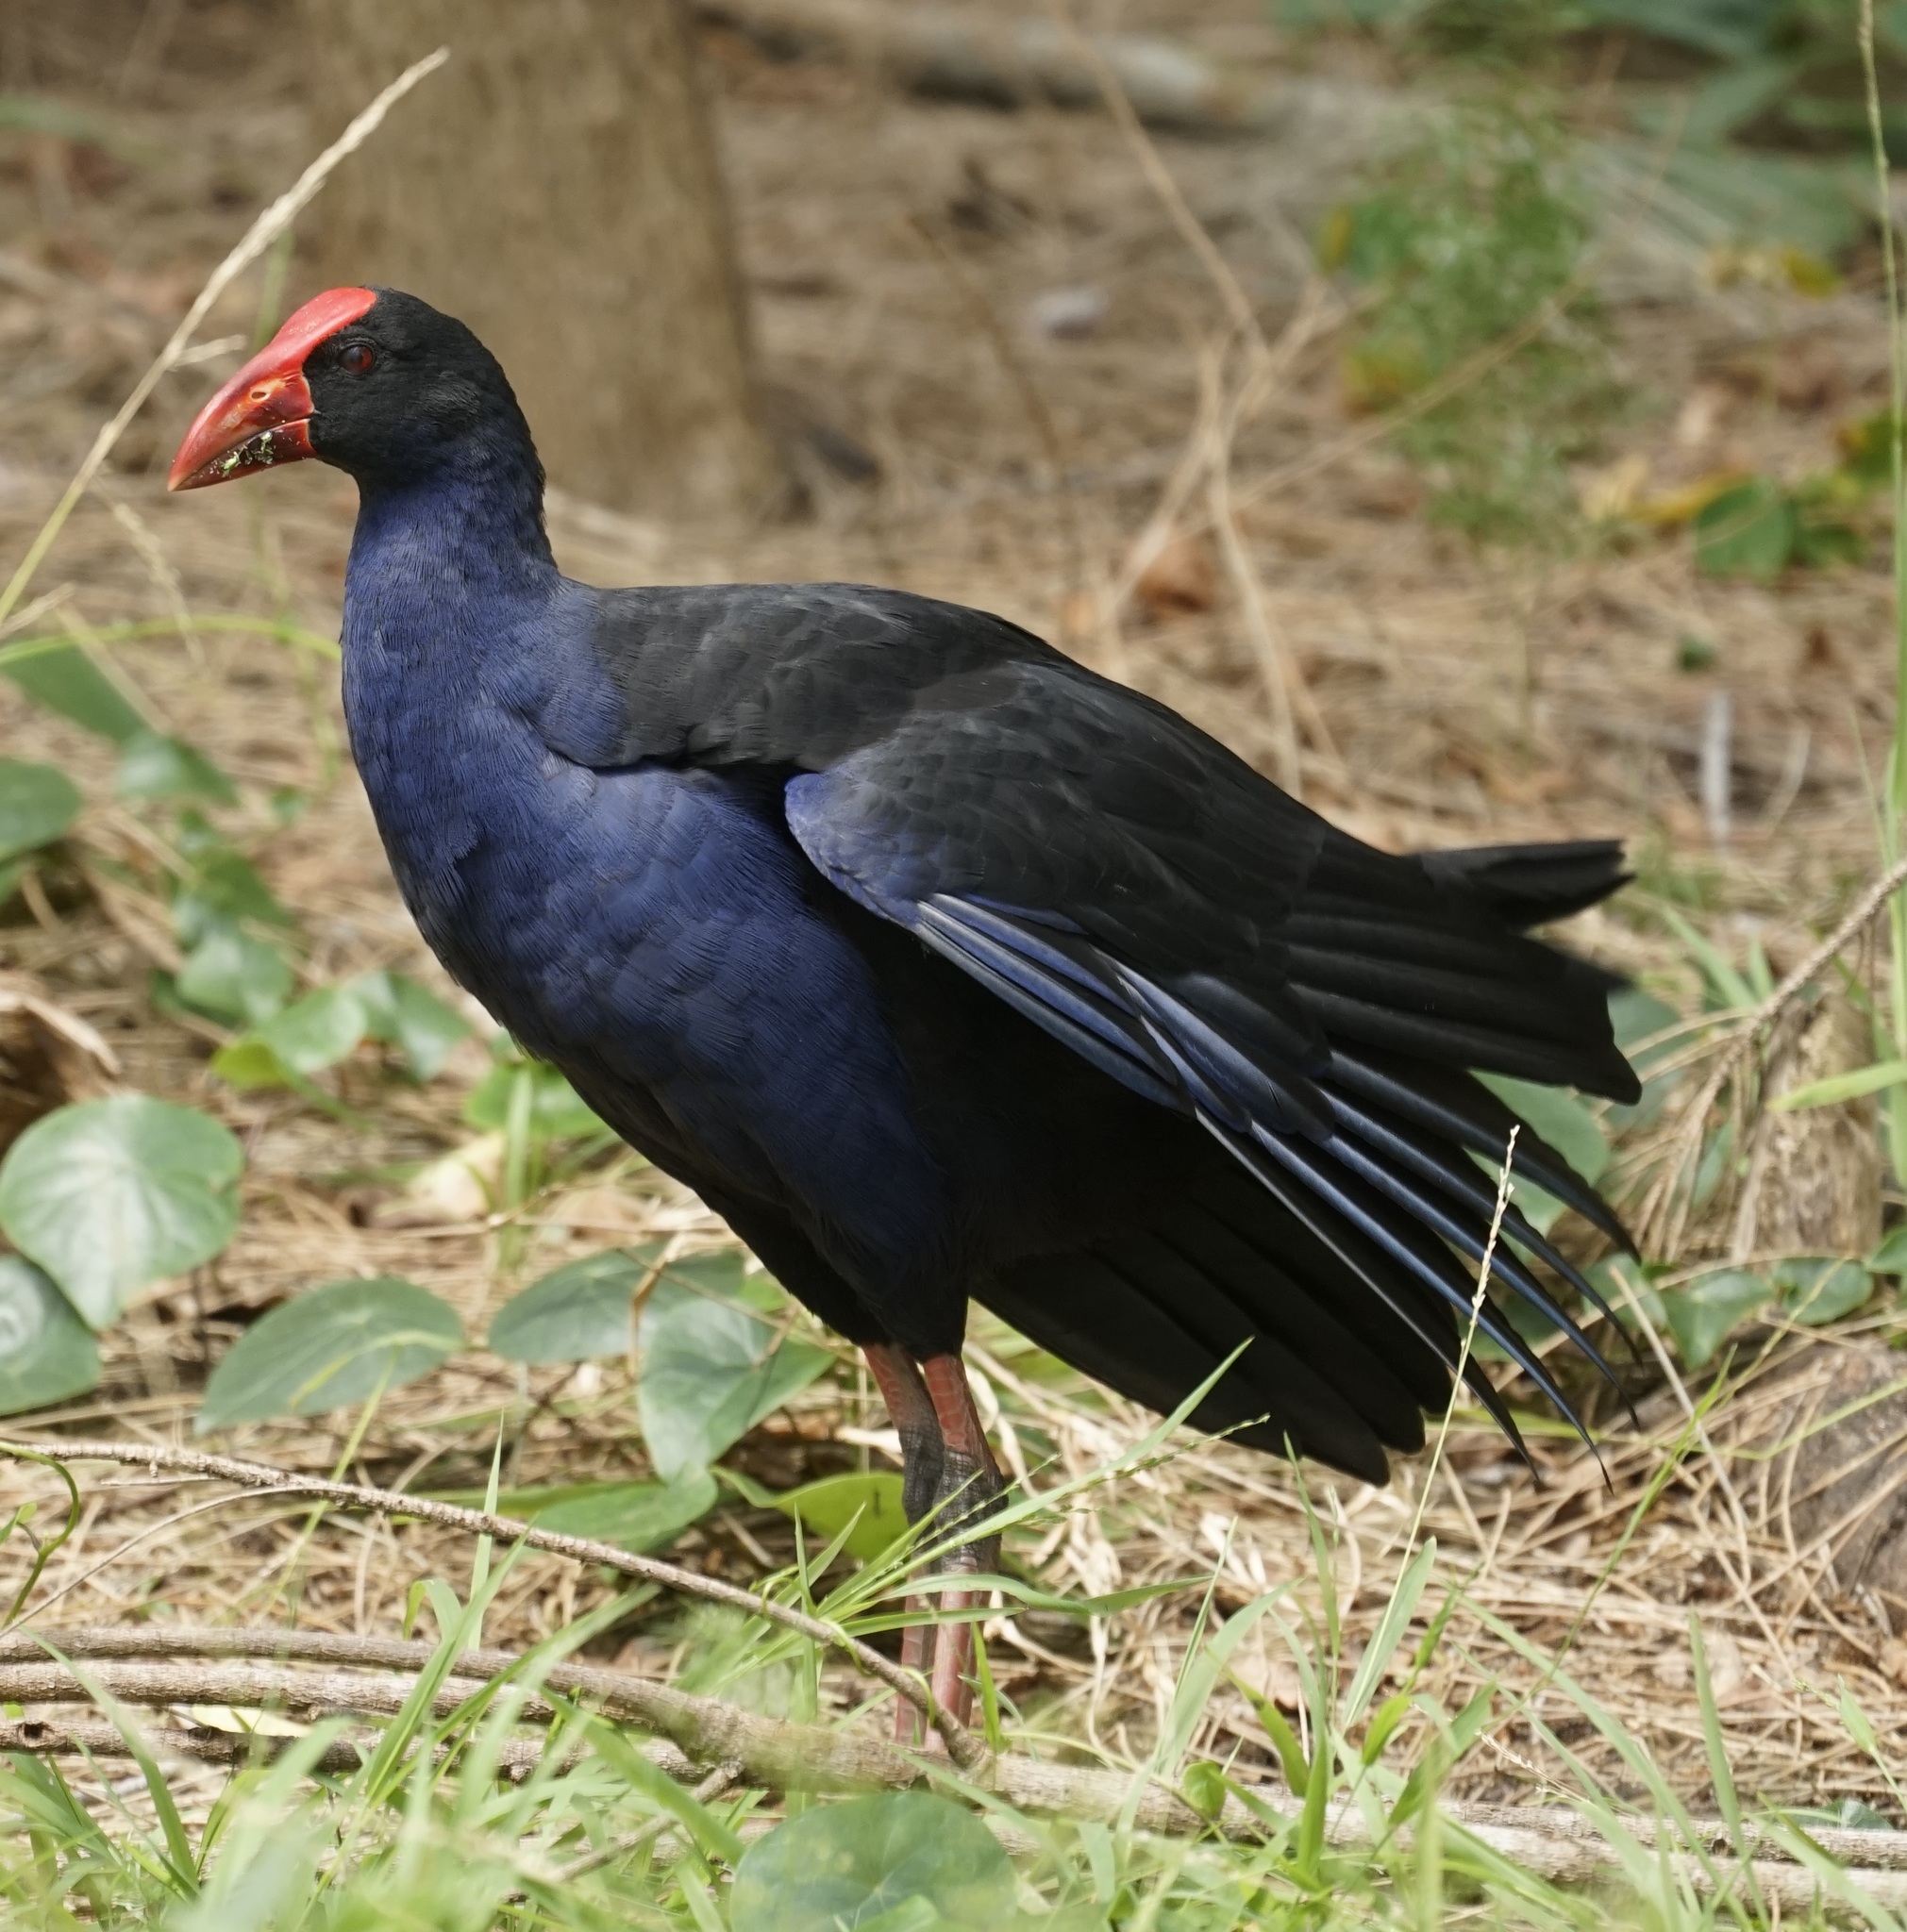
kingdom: Animalia
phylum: Chordata
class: Aves
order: Gruiformes
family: Rallidae
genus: Porphyrio
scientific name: Porphyrio melanotus
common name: Australasian swamphen
